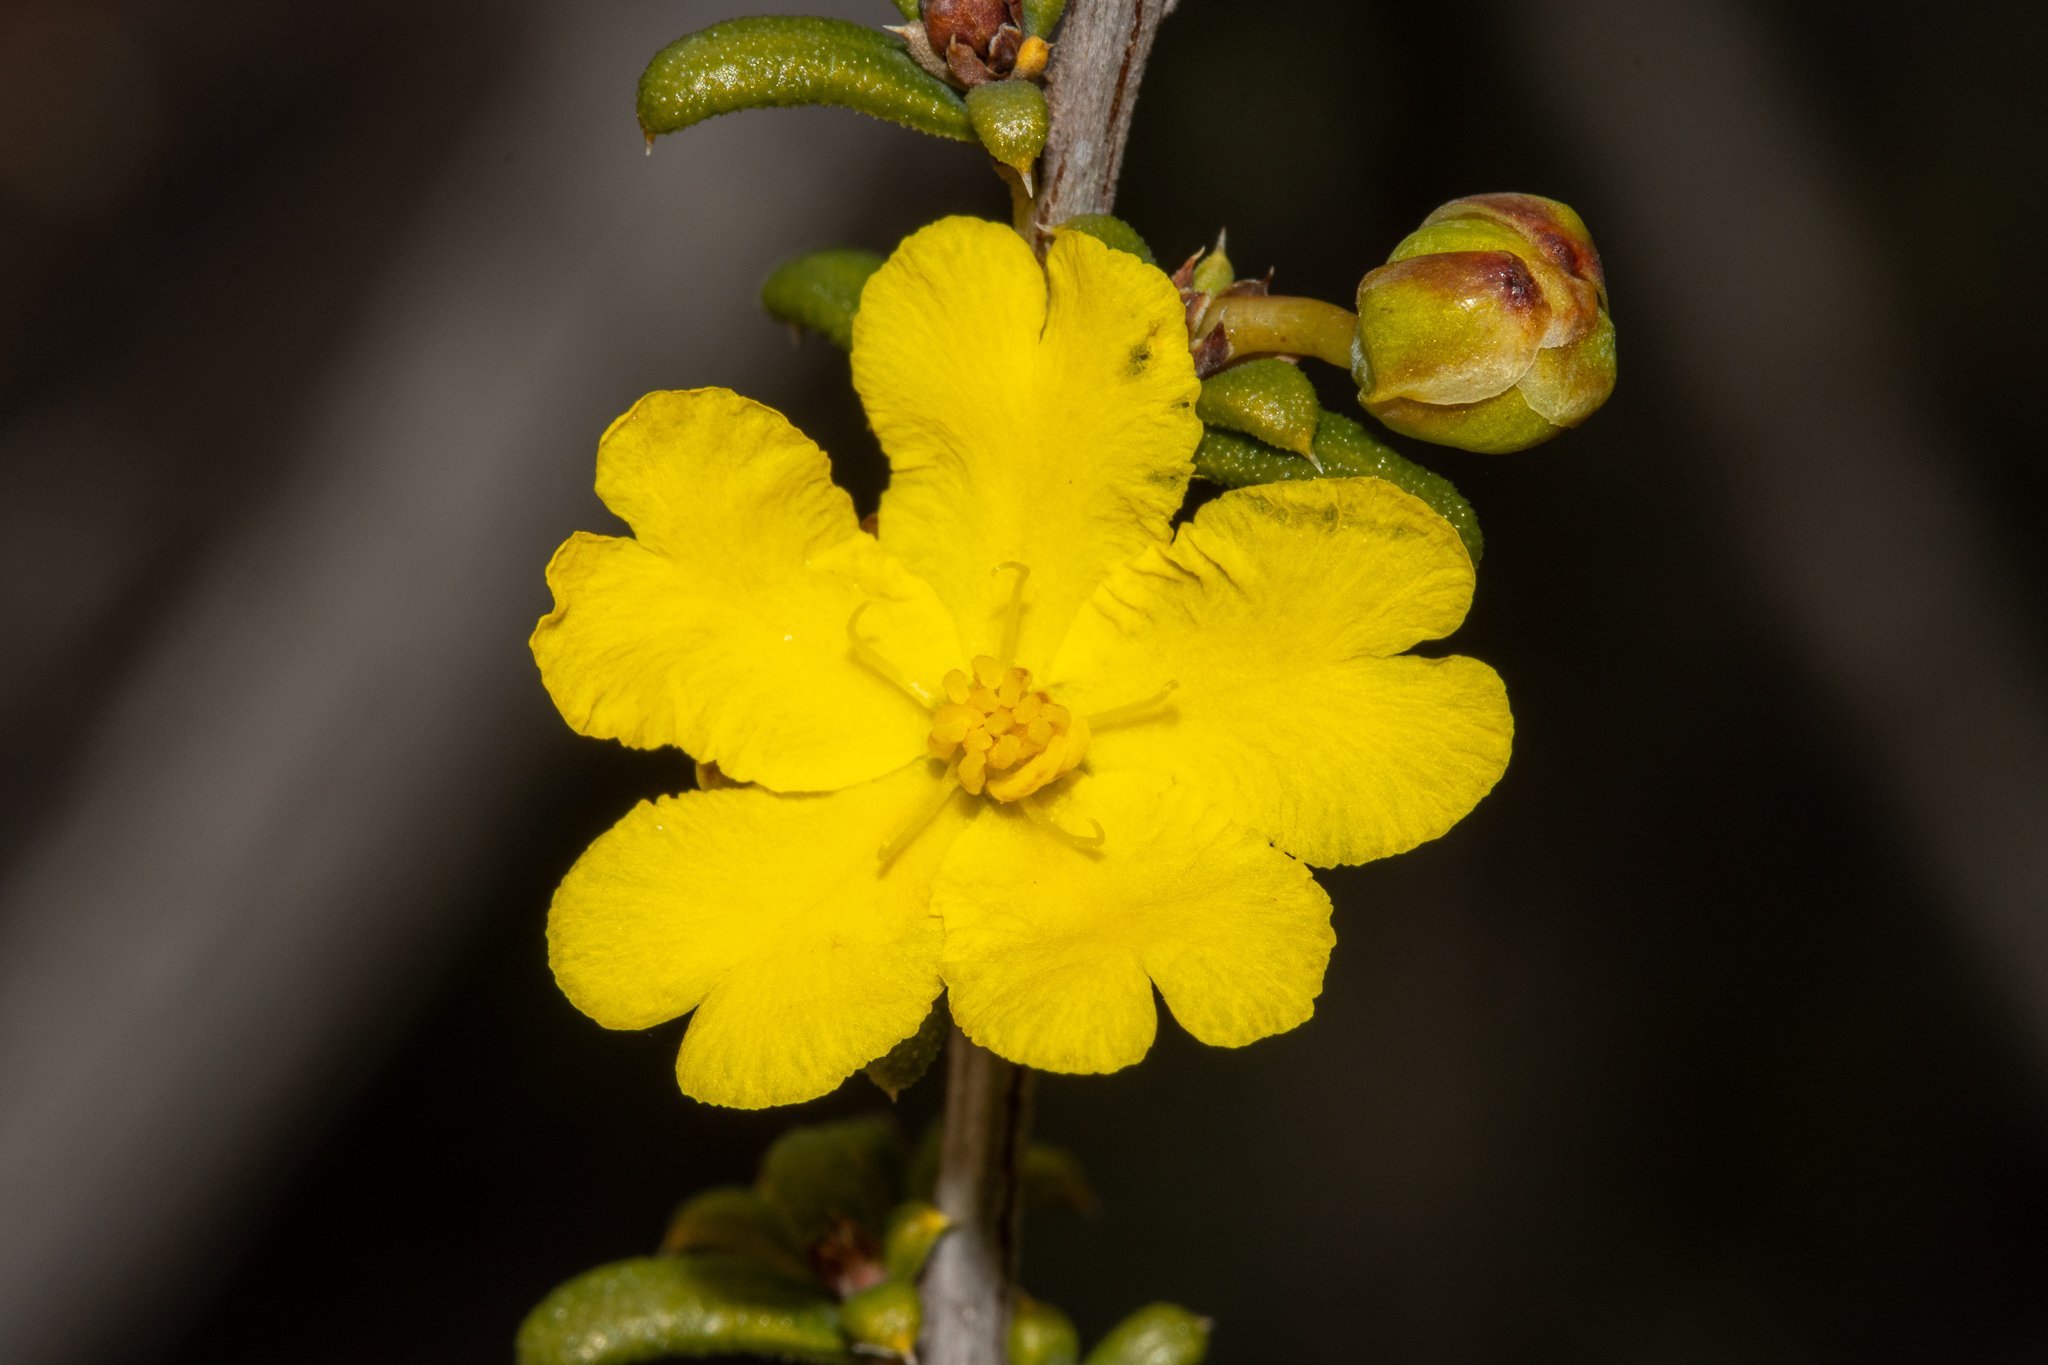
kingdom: Plantae
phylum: Tracheophyta
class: Magnoliopsida
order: Dilleniales
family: Dilleniaceae
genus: Hibbertia
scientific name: Hibbertia rostellata
